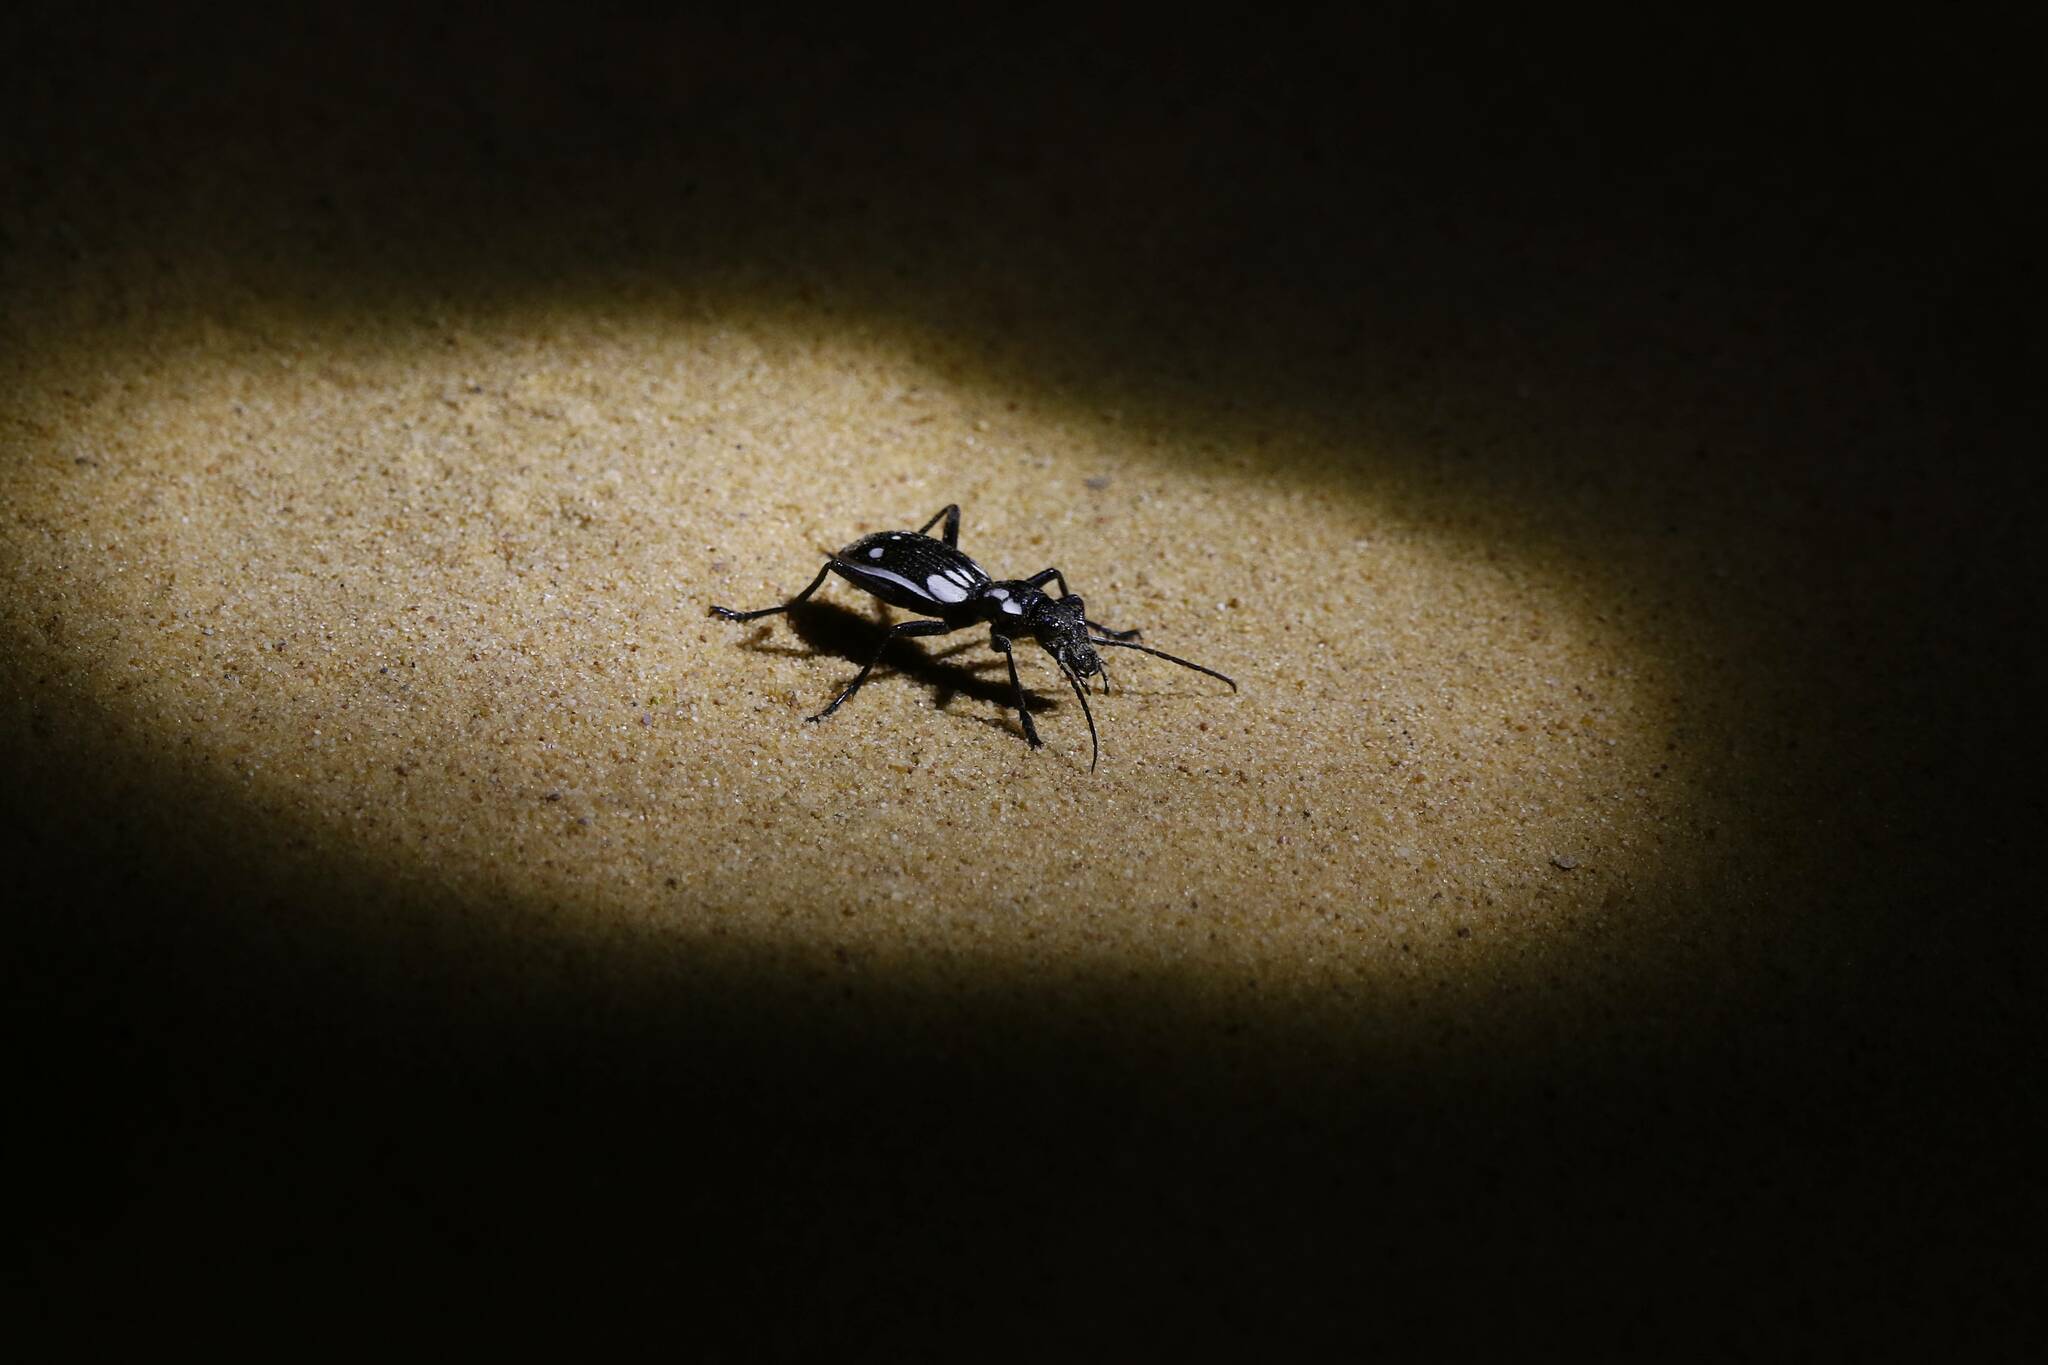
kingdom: Animalia
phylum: Arthropoda
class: Insecta
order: Coleoptera
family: Carabidae
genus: Anthia
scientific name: Anthia sexmaculata
